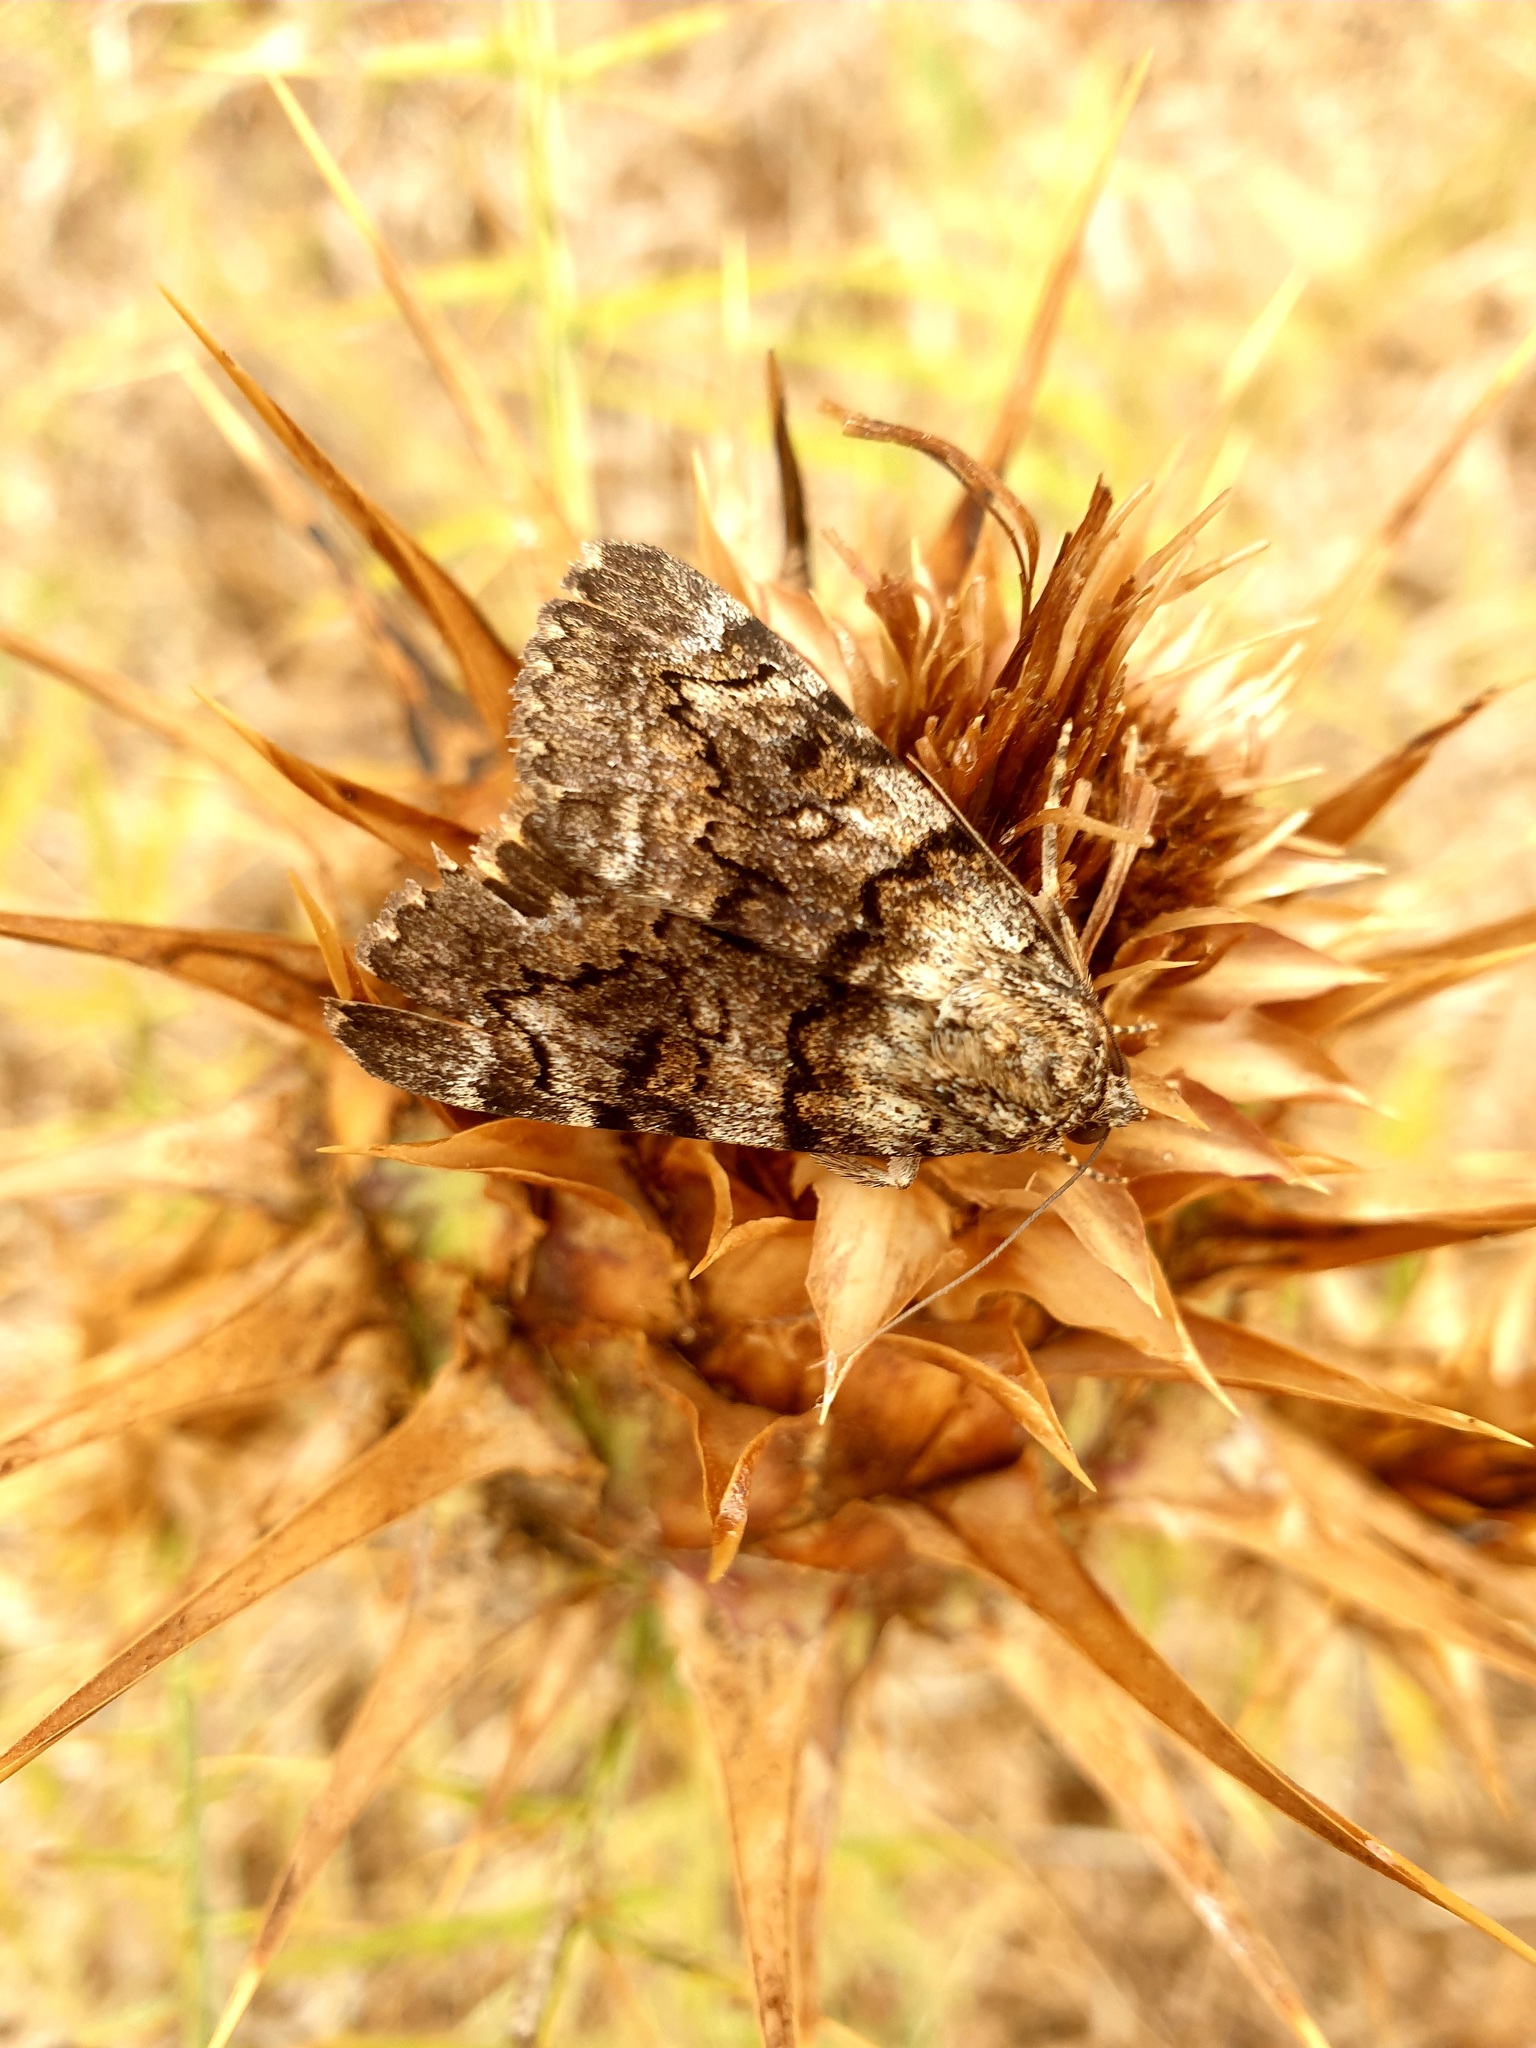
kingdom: Animalia
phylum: Arthropoda
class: Insecta
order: Lepidoptera
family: Erebidae
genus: Catocala
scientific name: Catocala nymphagoga
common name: Oak yellow underwing
